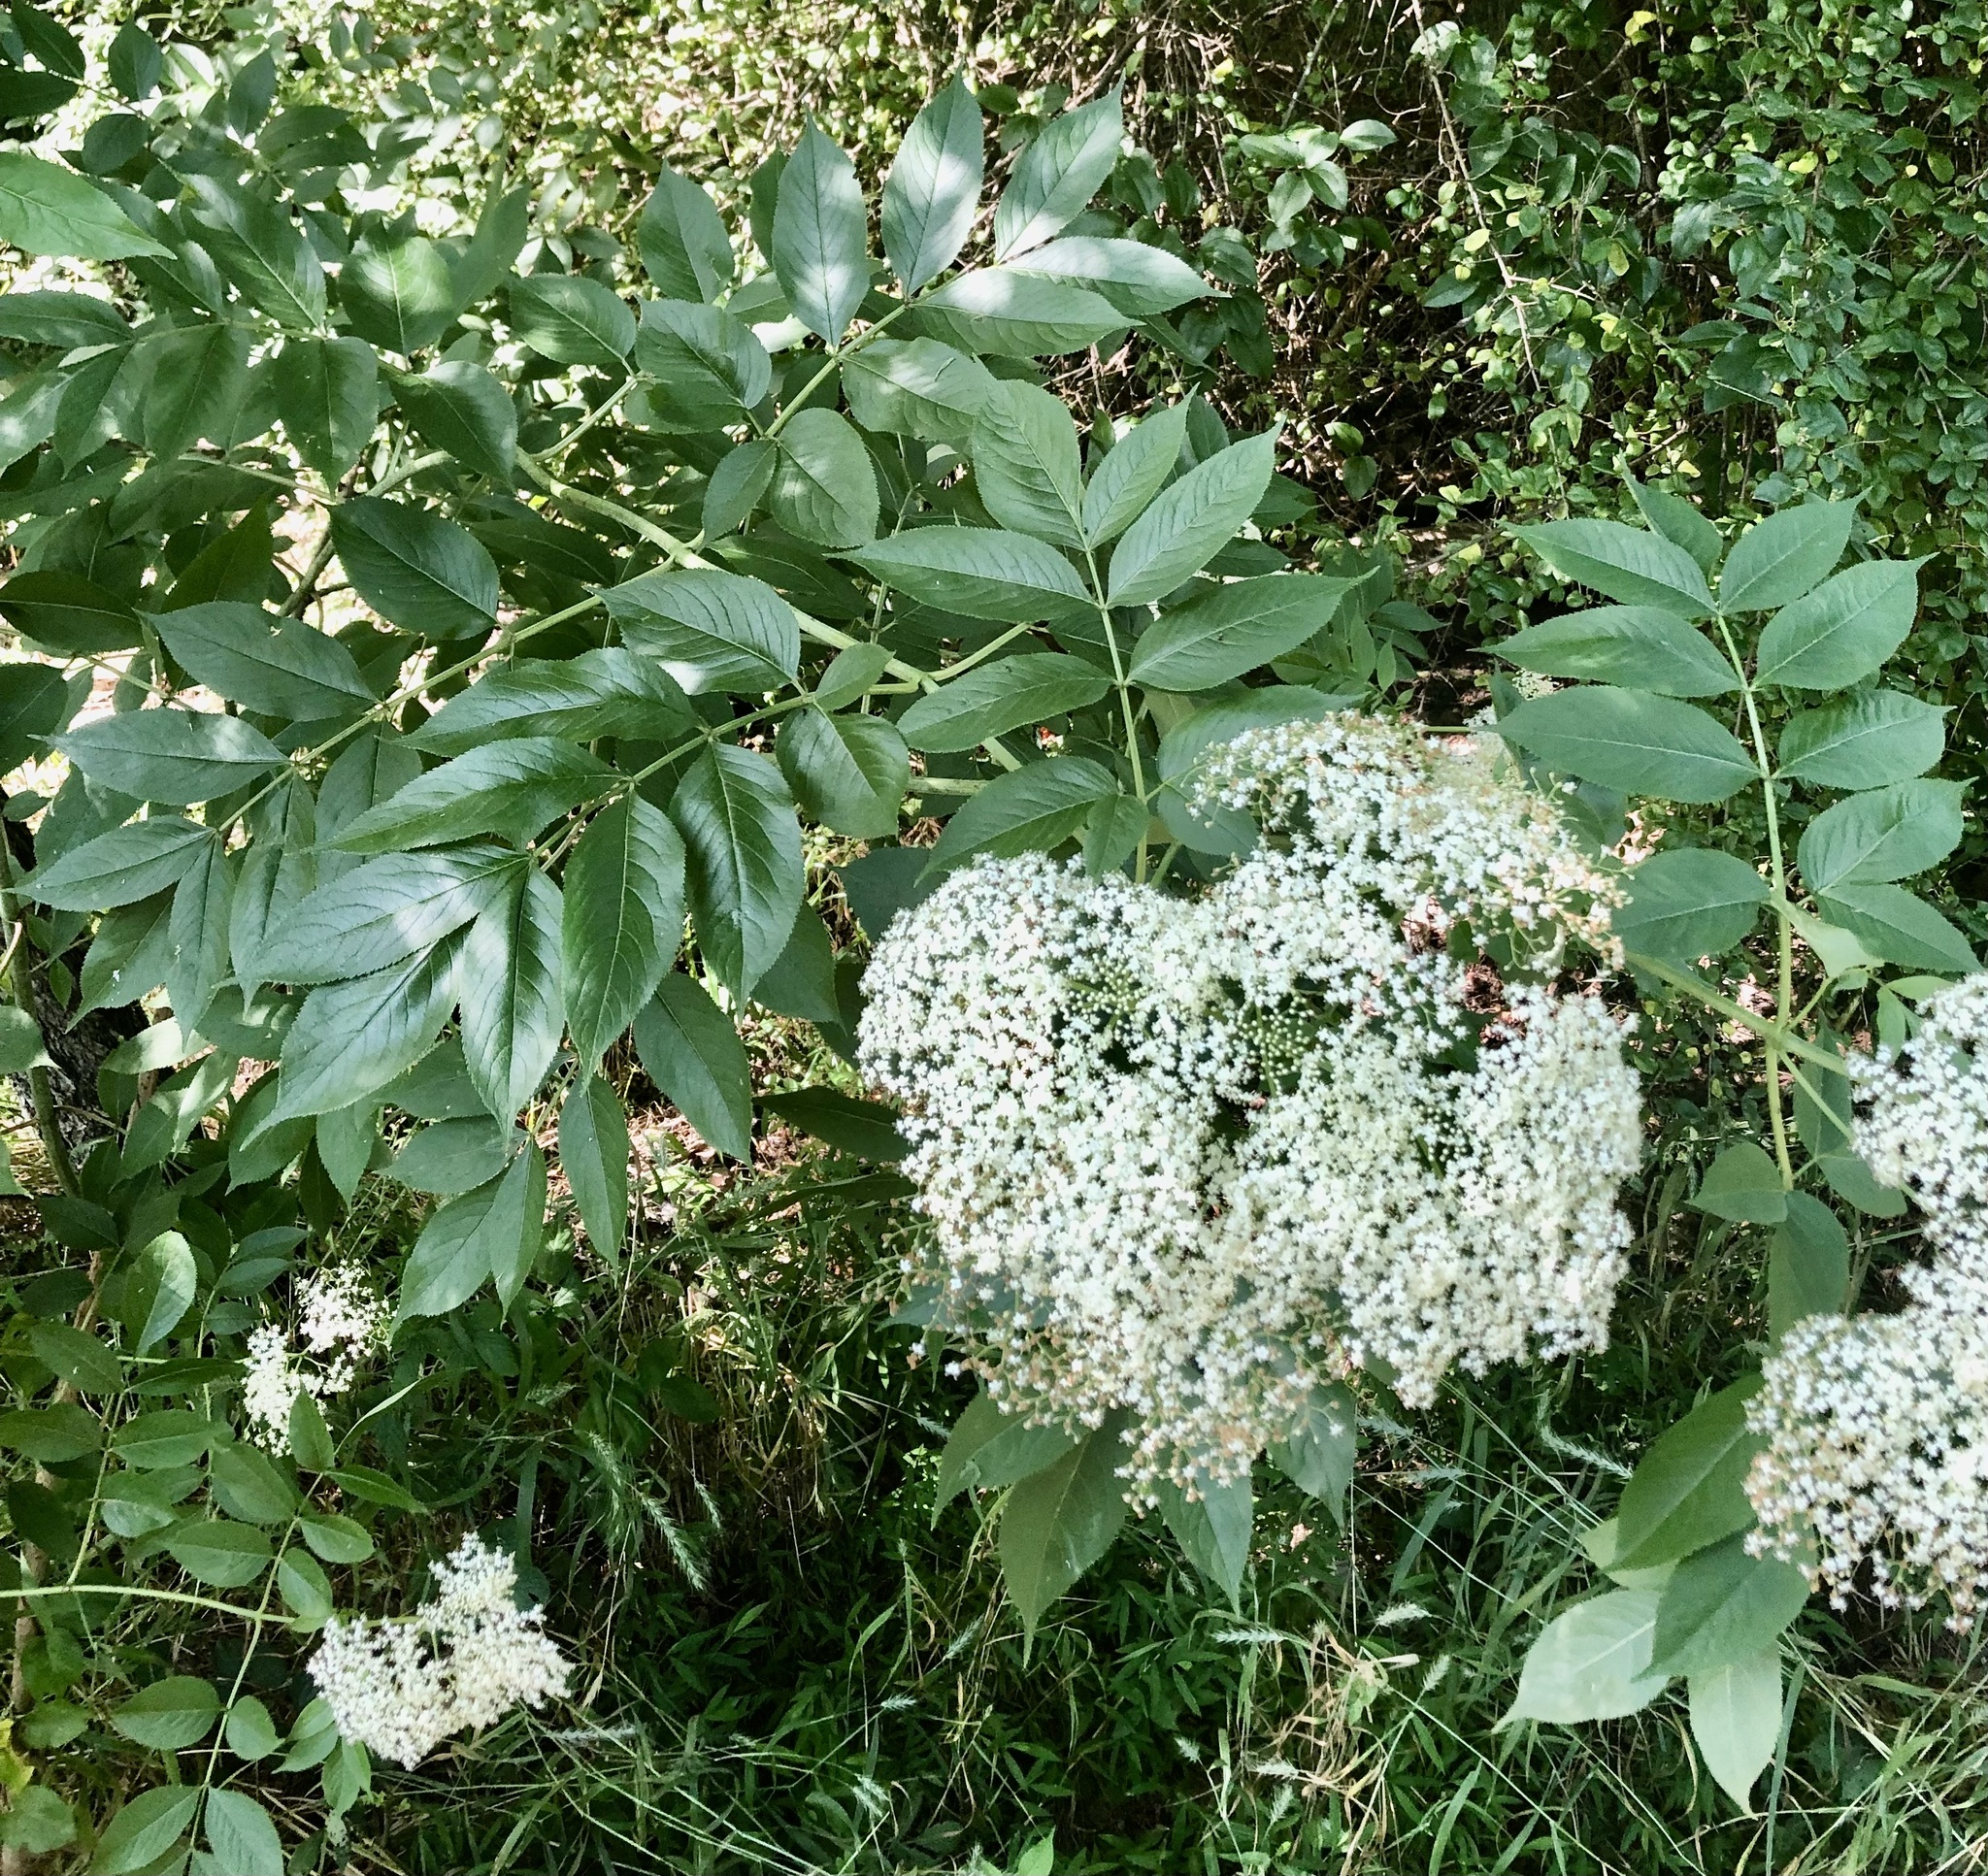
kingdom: Plantae
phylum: Tracheophyta
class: Magnoliopsida
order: Dipsacales
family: Viburnaceae
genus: Sambucus
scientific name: Sambucus canadensis
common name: American elder
